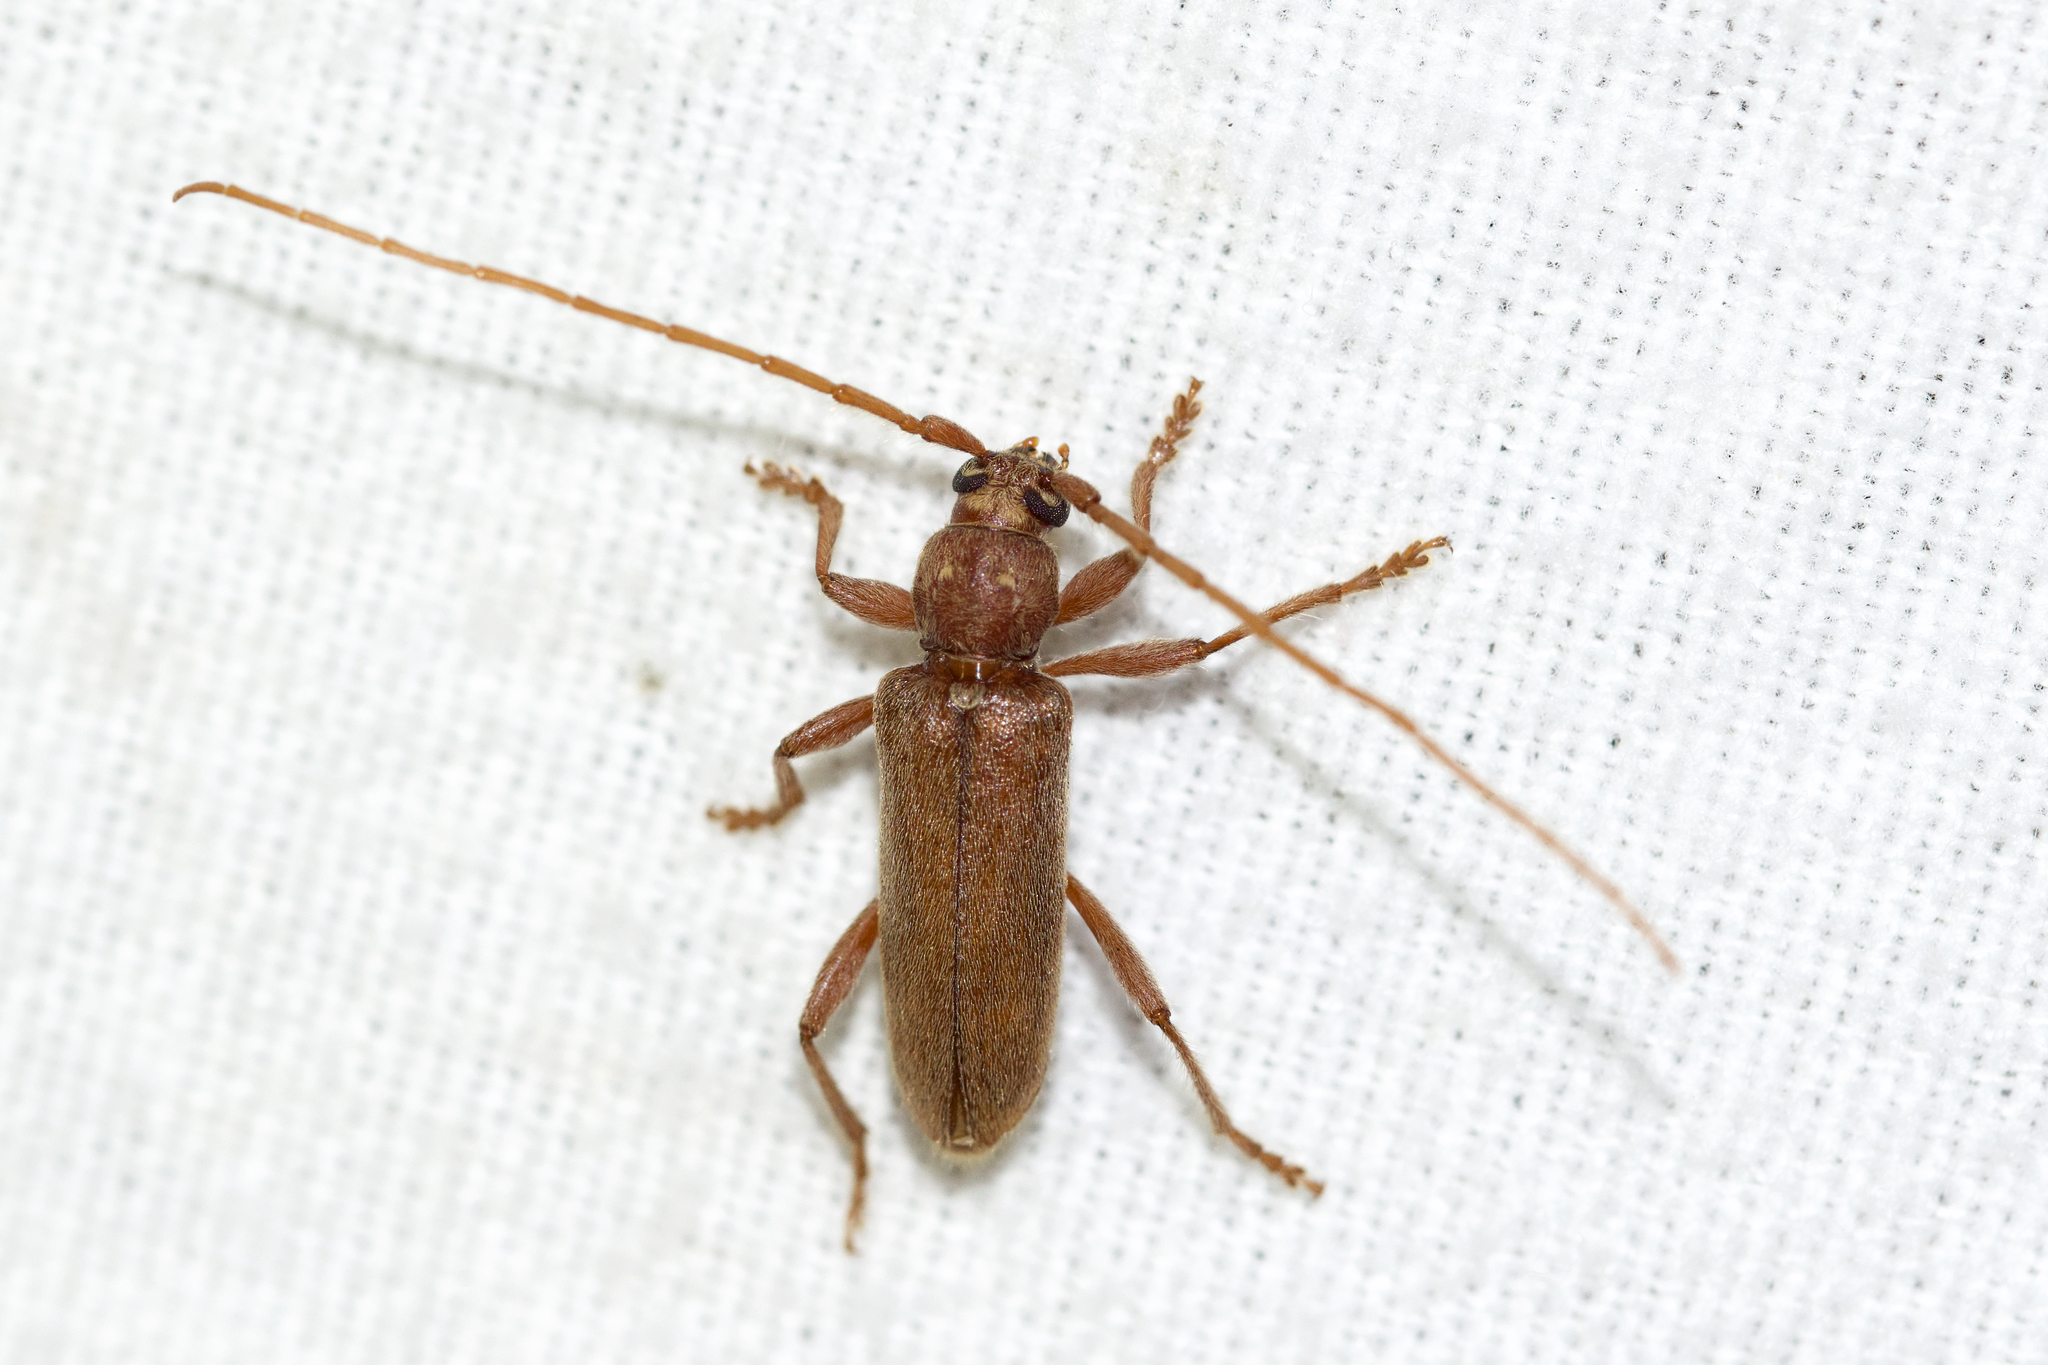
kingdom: Animalia
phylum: Arthropoda
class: Insecta
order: Coleoptera
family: Cerambycidae
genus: Hesperophanes
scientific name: Hesperophanes pubescens
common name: Longhorned wood-boring beetle
